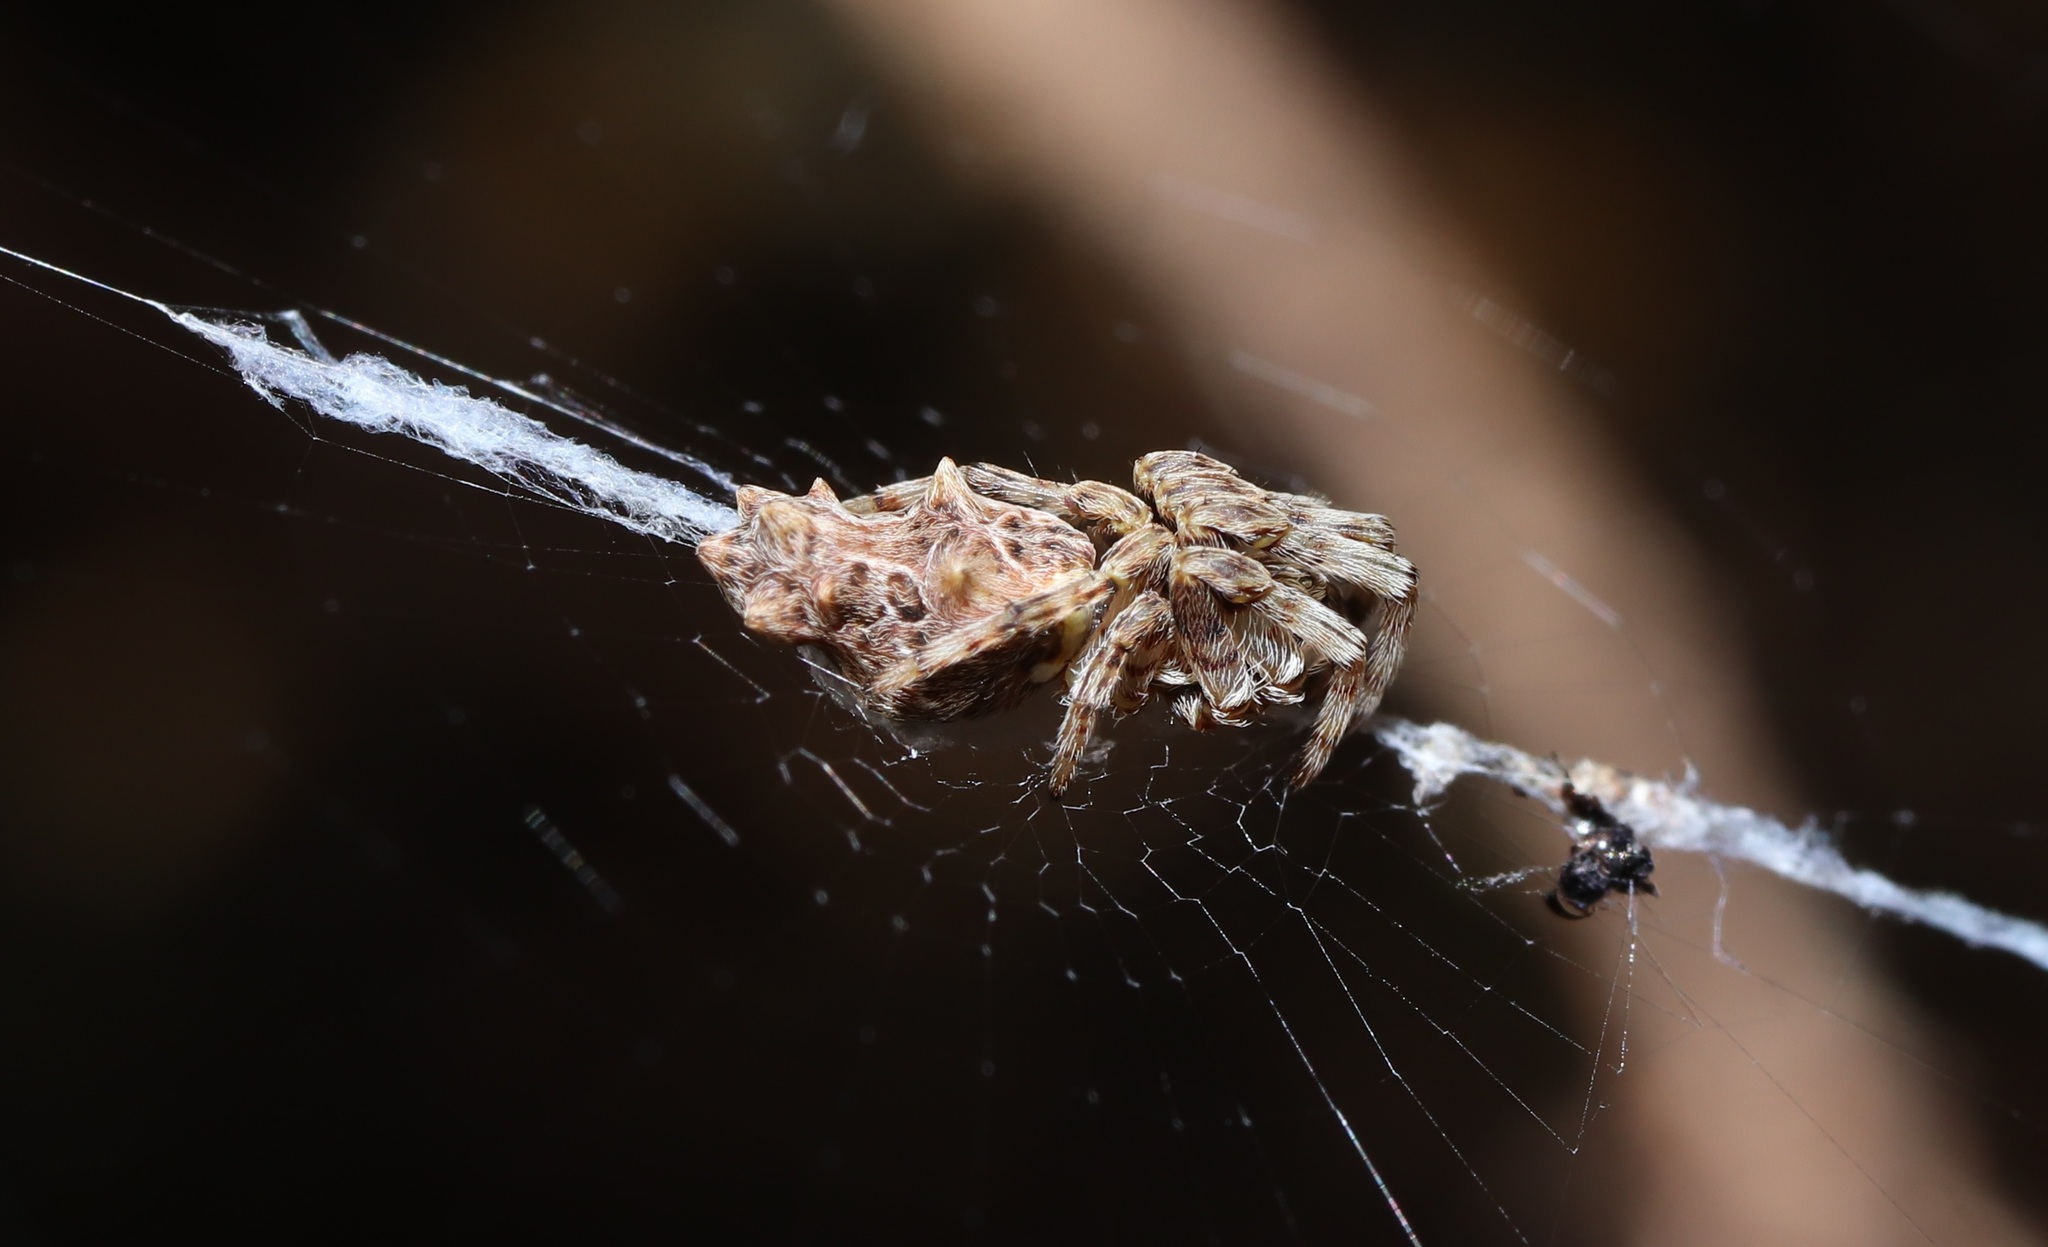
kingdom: Animalia
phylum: Arthropoda
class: Arachnida
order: Araneae
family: Araneidae
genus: Cyclosa
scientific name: Cyclosa octotuberculata
